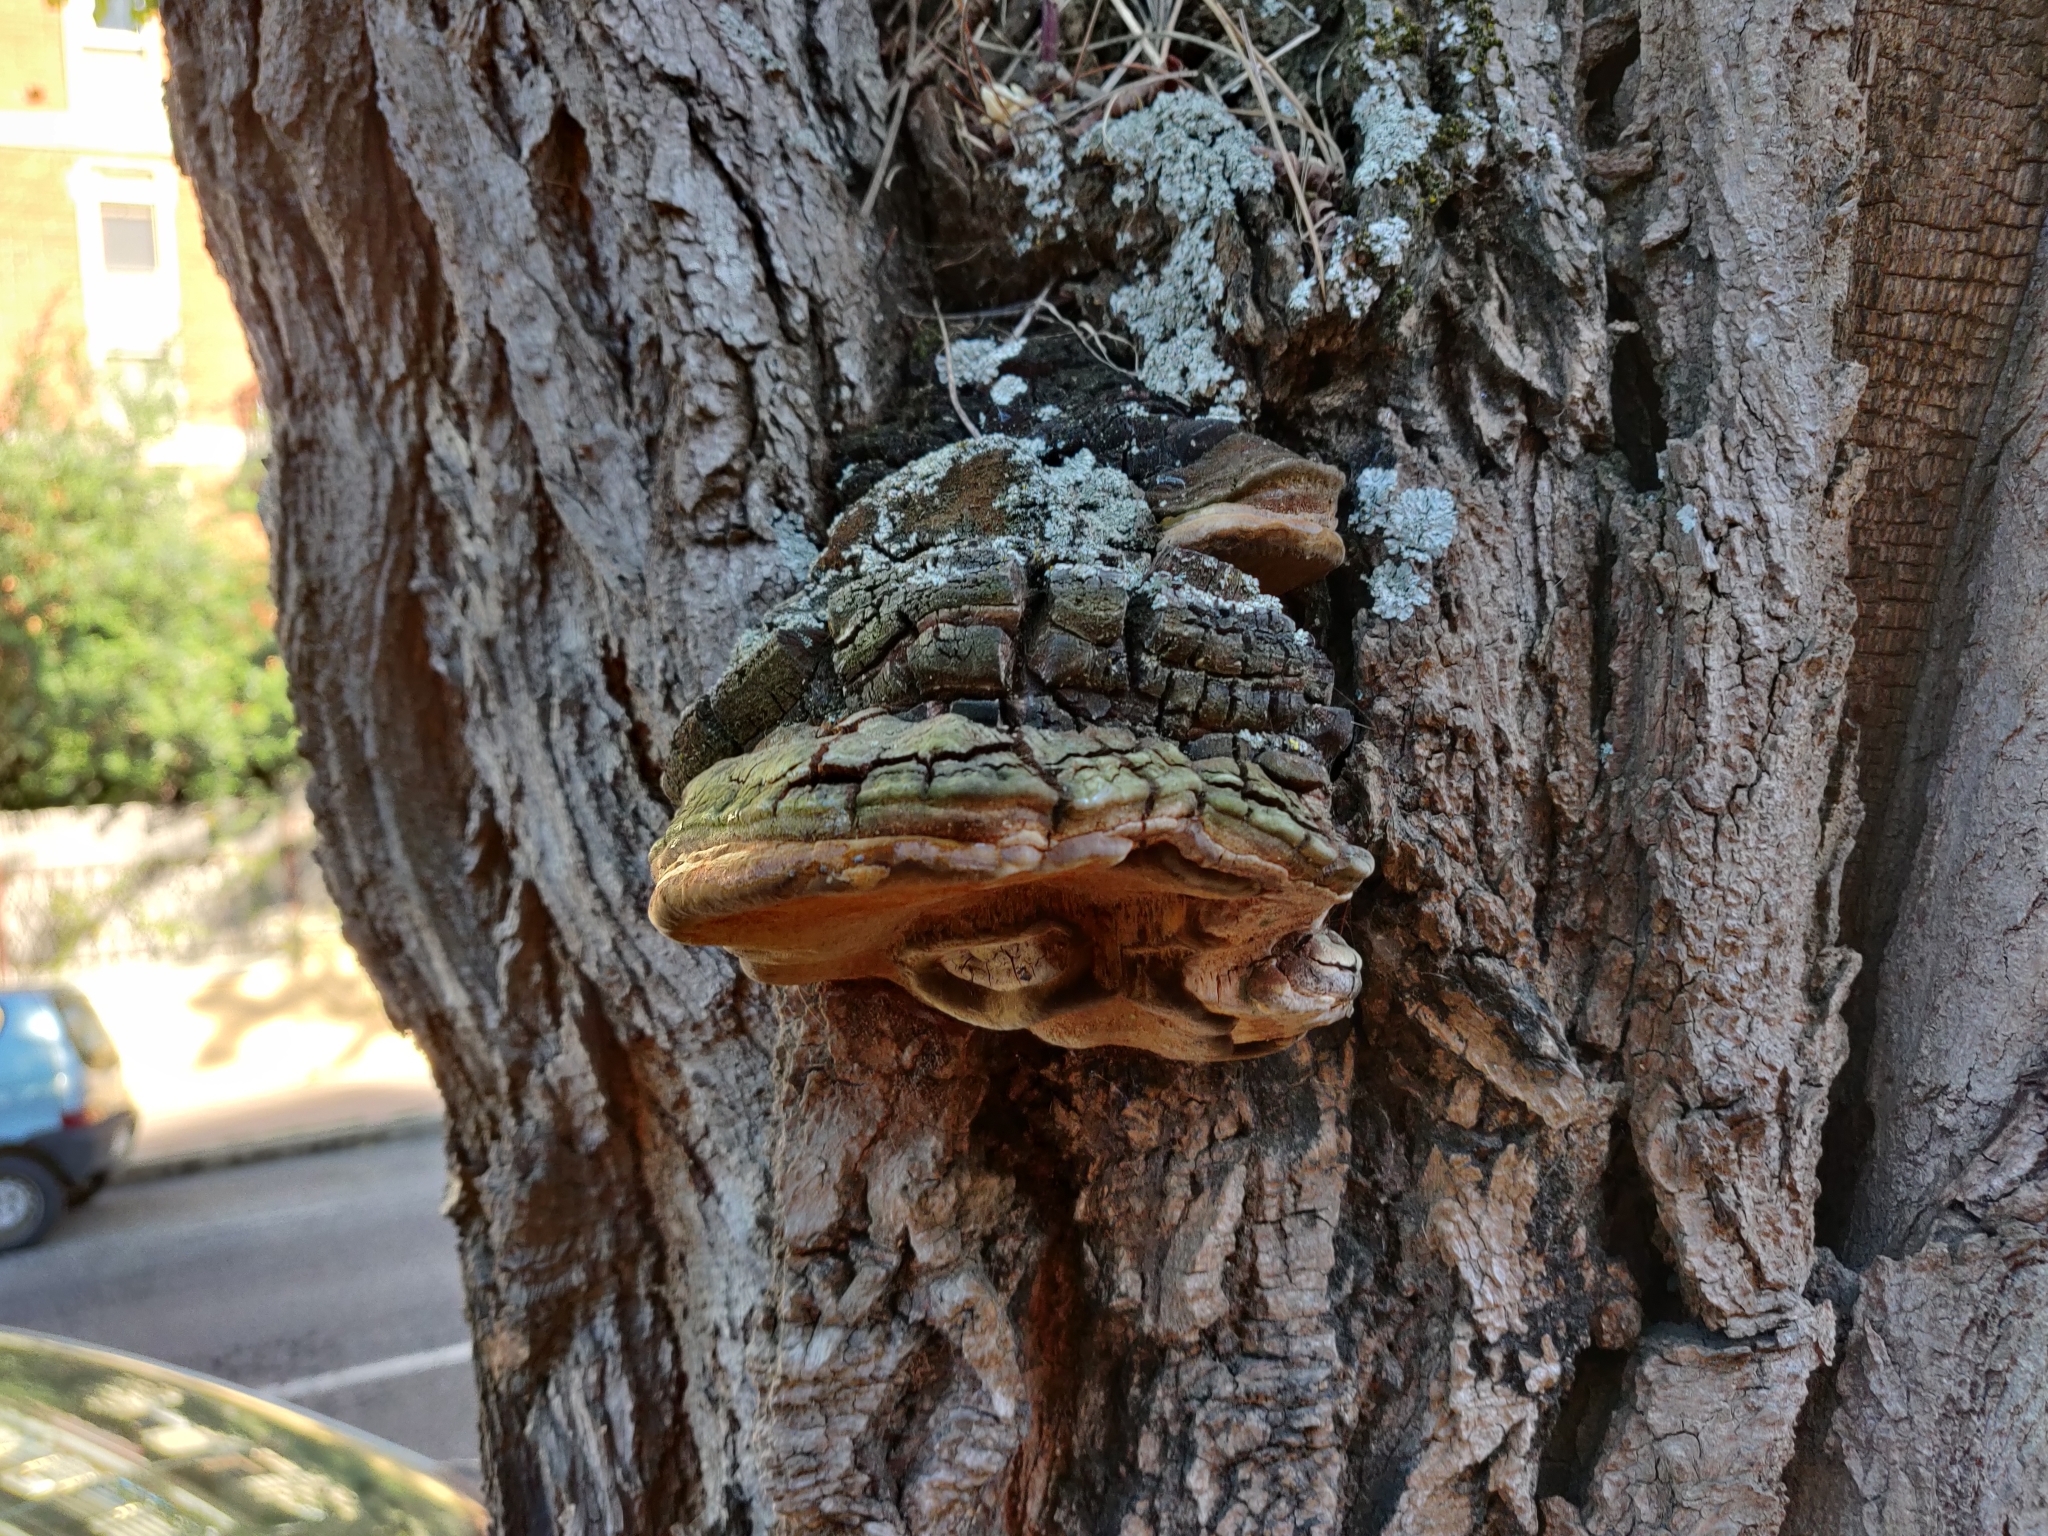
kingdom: Fungi
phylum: Basidiomycota
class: Agaricomycetes
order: Hymenochaetales
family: Hymenochaetaceae
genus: Phellinus
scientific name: Phellinus robiniae
